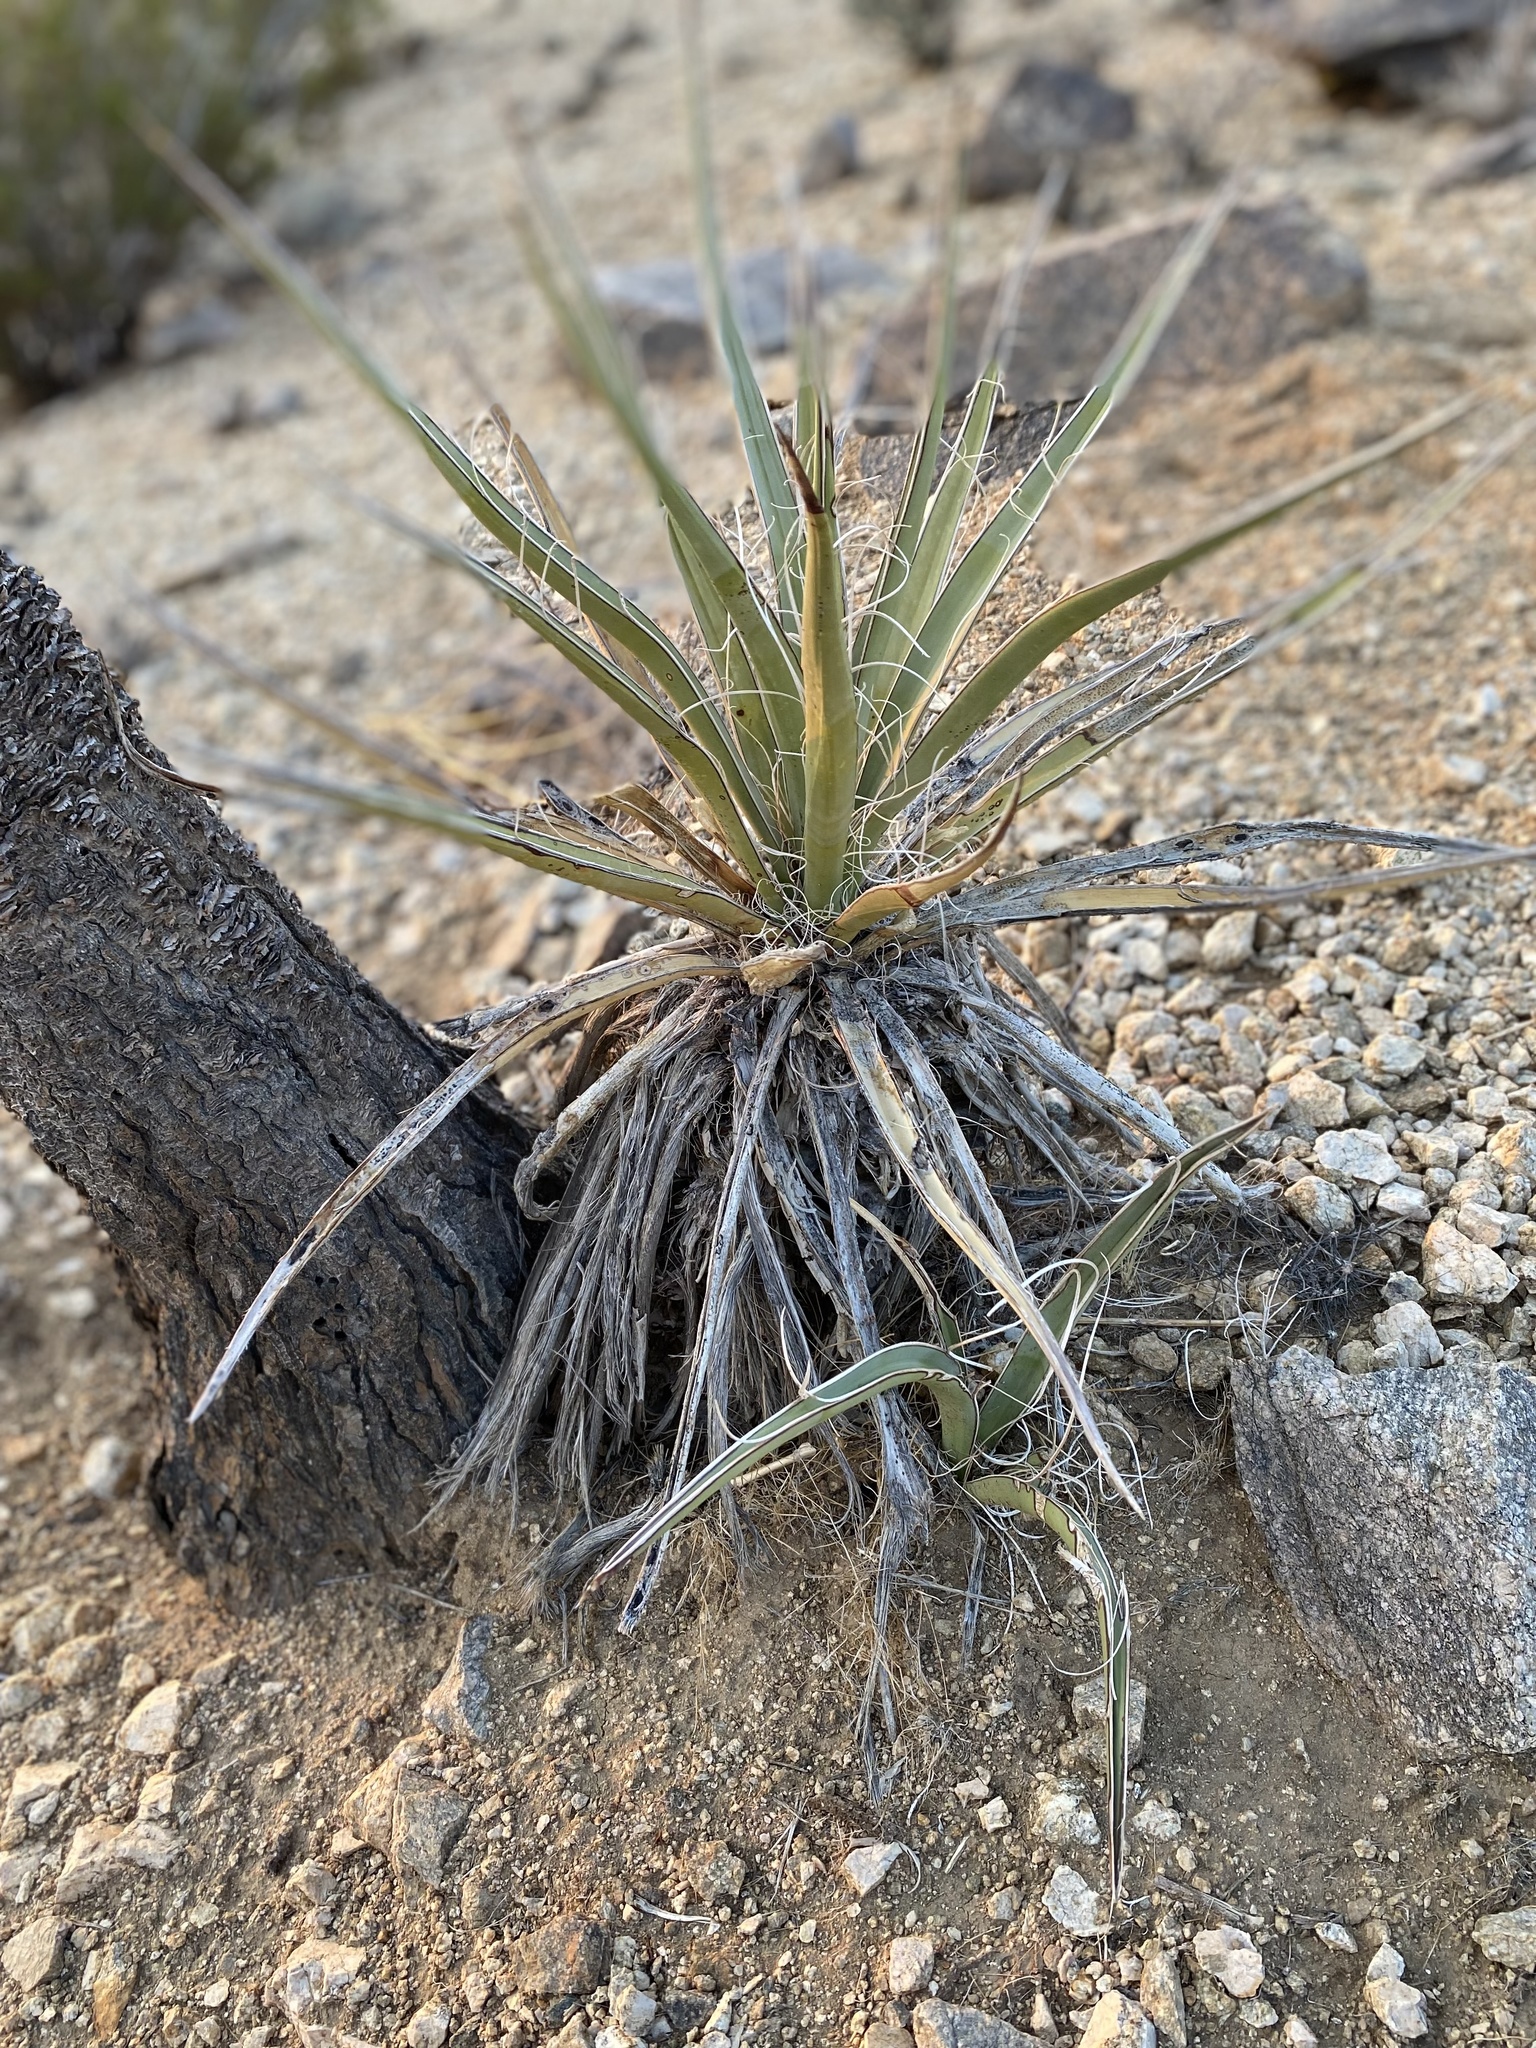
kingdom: Plantae
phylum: Tracheophyta
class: Liliopsida
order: Asparagales
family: Asparagaceae
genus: Yucca
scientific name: Yucca schidigera
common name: Mojave yucca
